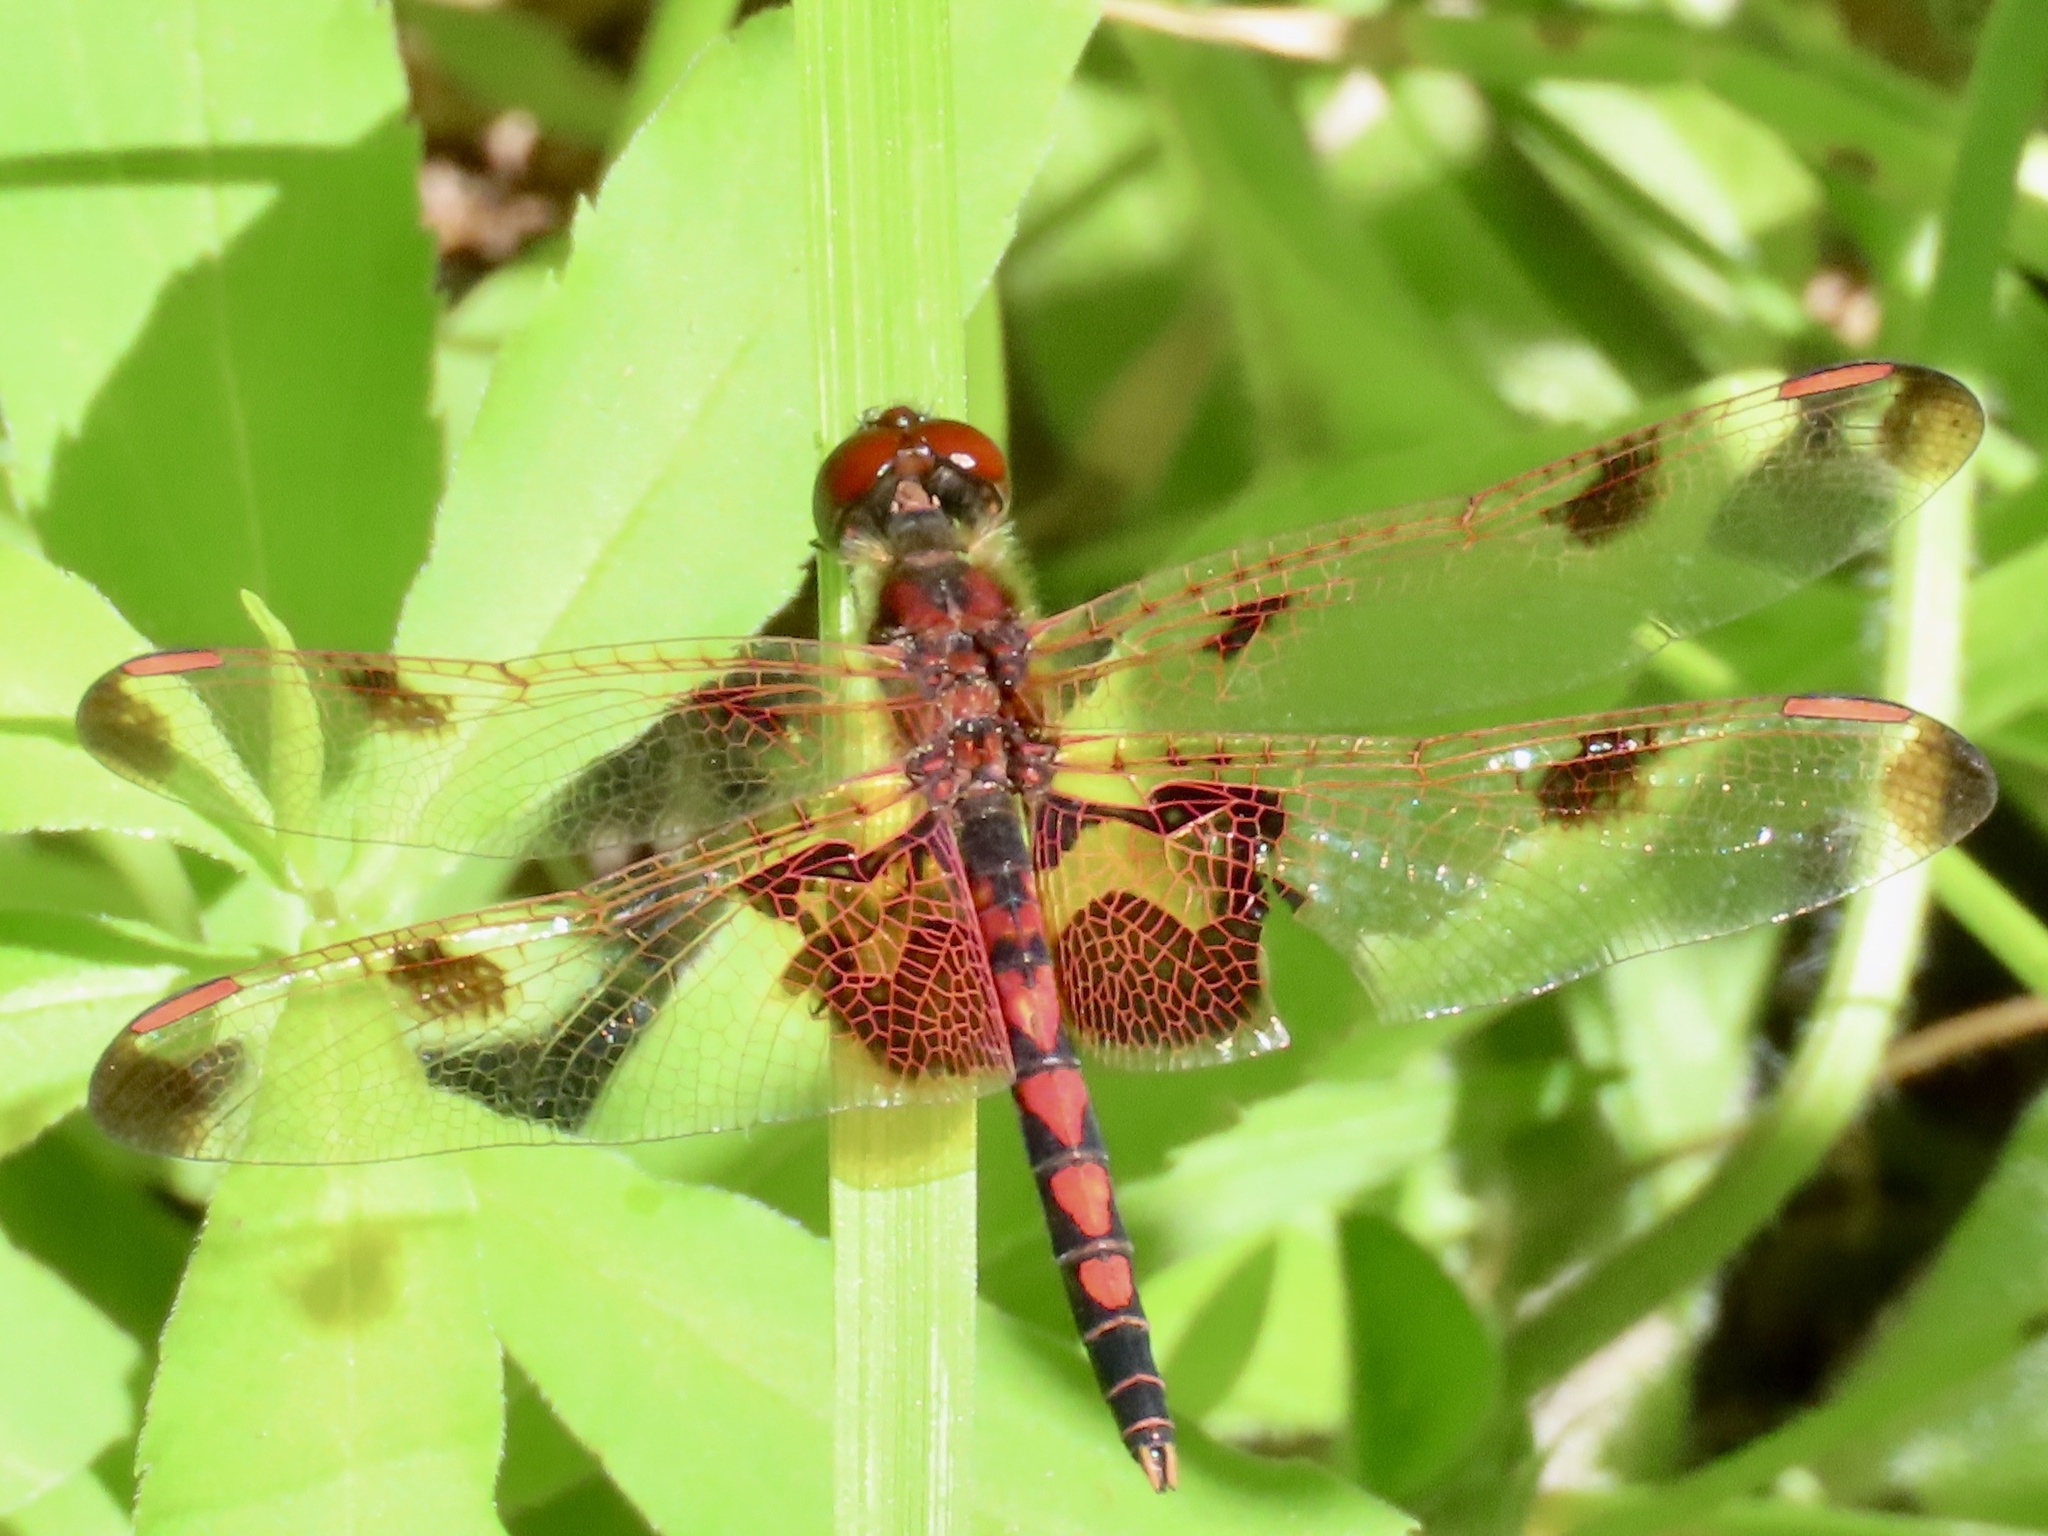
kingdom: Animalia
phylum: Arthropoda
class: Insecta
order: Odonata
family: Libellulidae
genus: Celithemis
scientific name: Celithemis elisa
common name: Calico pennant
